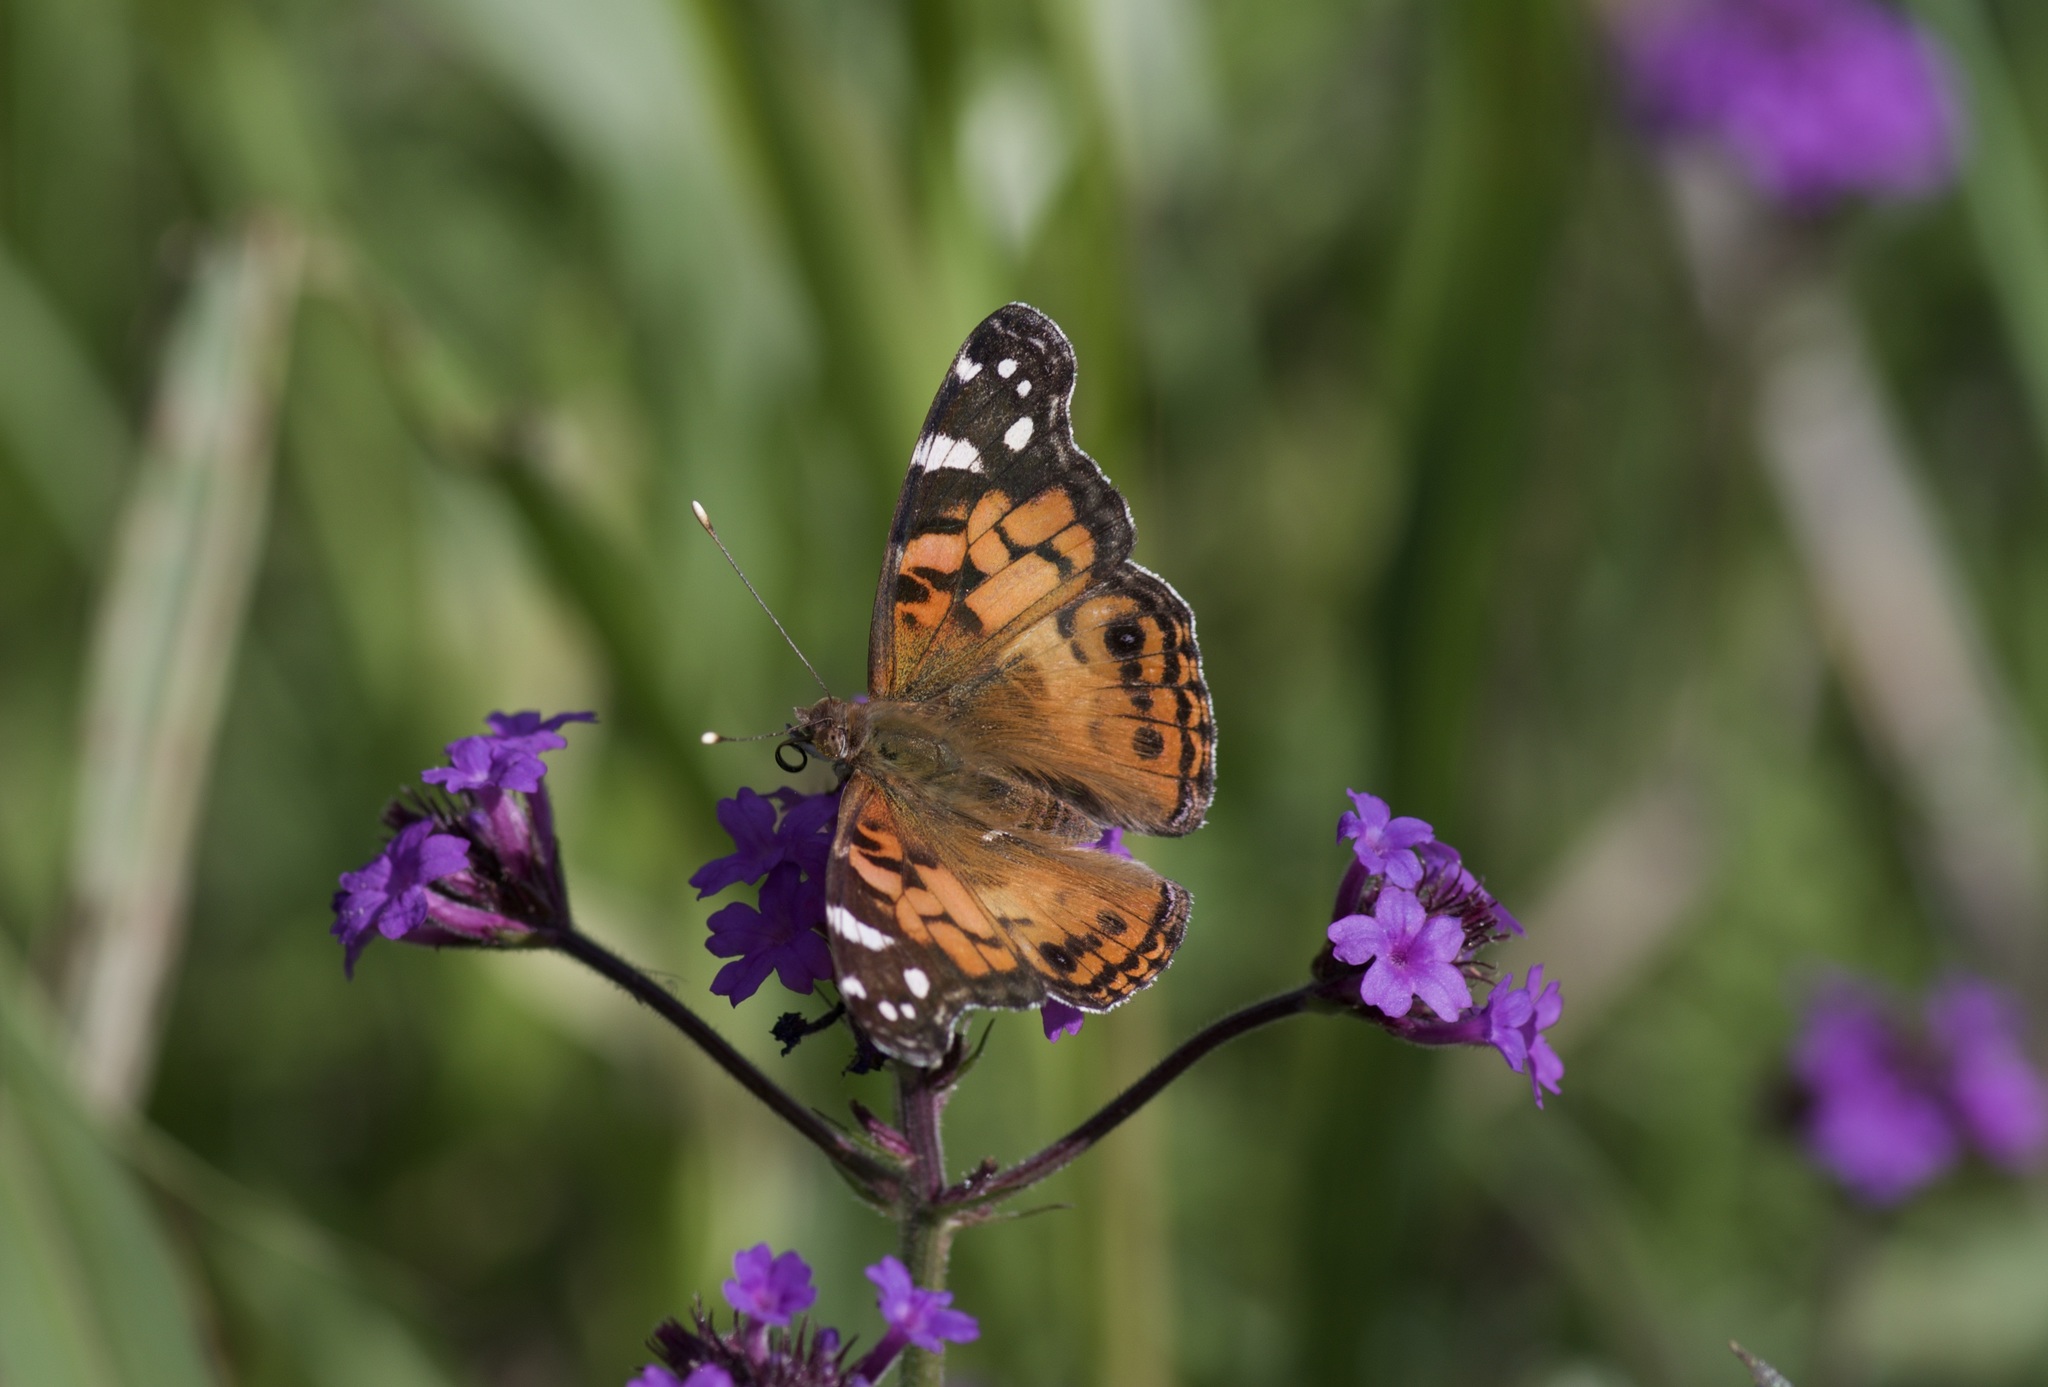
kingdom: Animalia
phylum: Arthropoda
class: Insecta
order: Lepidoptera
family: Nymphalidae
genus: Vanessa
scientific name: Vanessa virginiensis
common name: American lady
